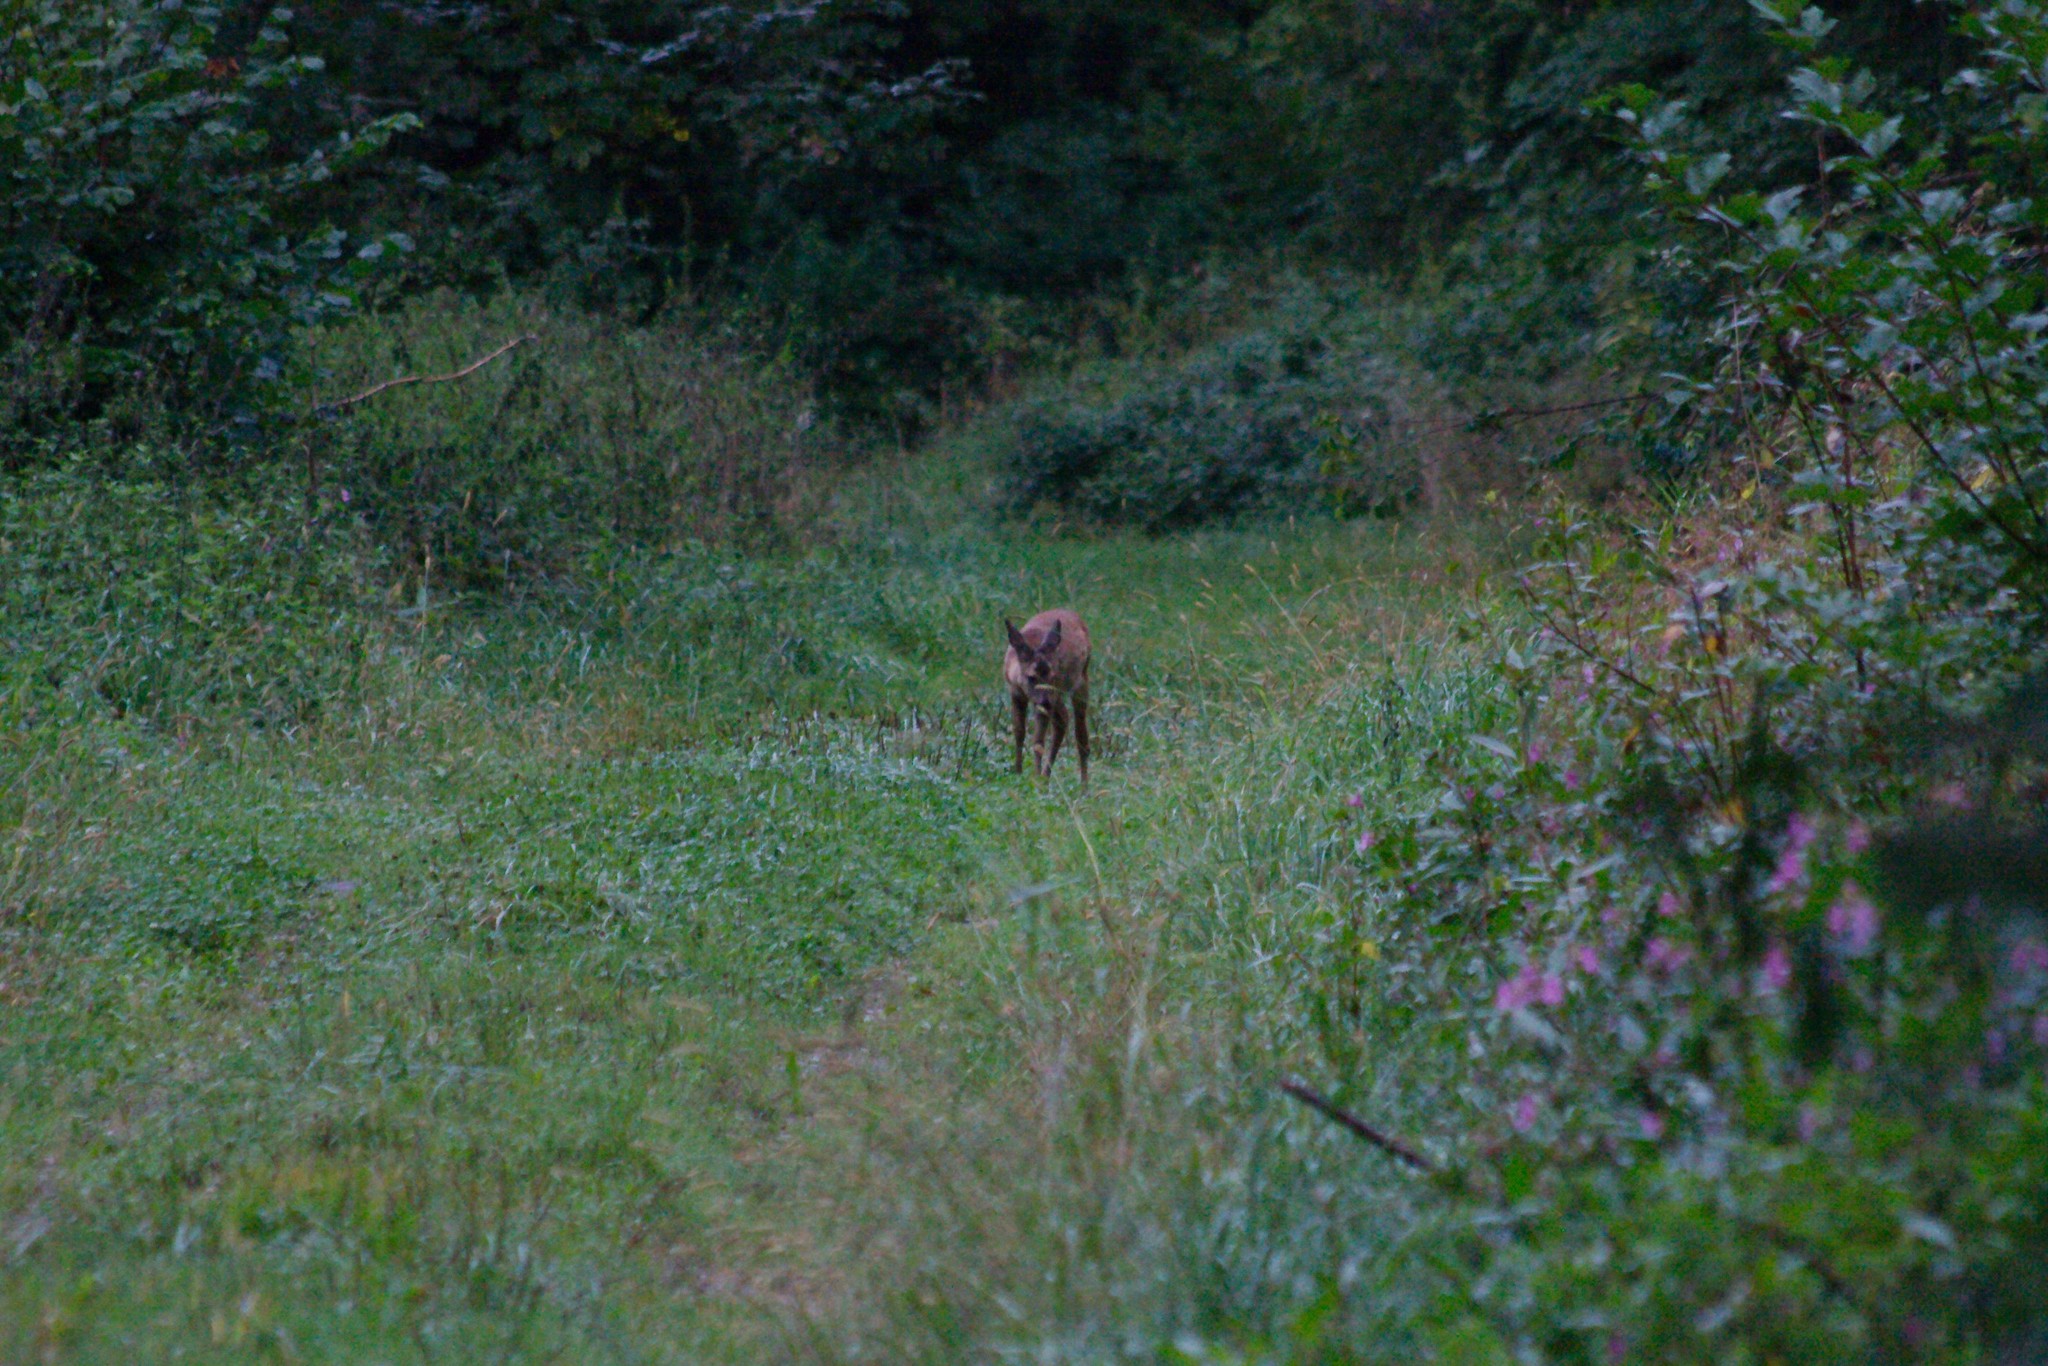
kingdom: Animalia
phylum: Chordata
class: Mammalia
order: Artiodactyla
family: Cervidae
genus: Capreolus
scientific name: Capreolus capreolus
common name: Western roe deer
